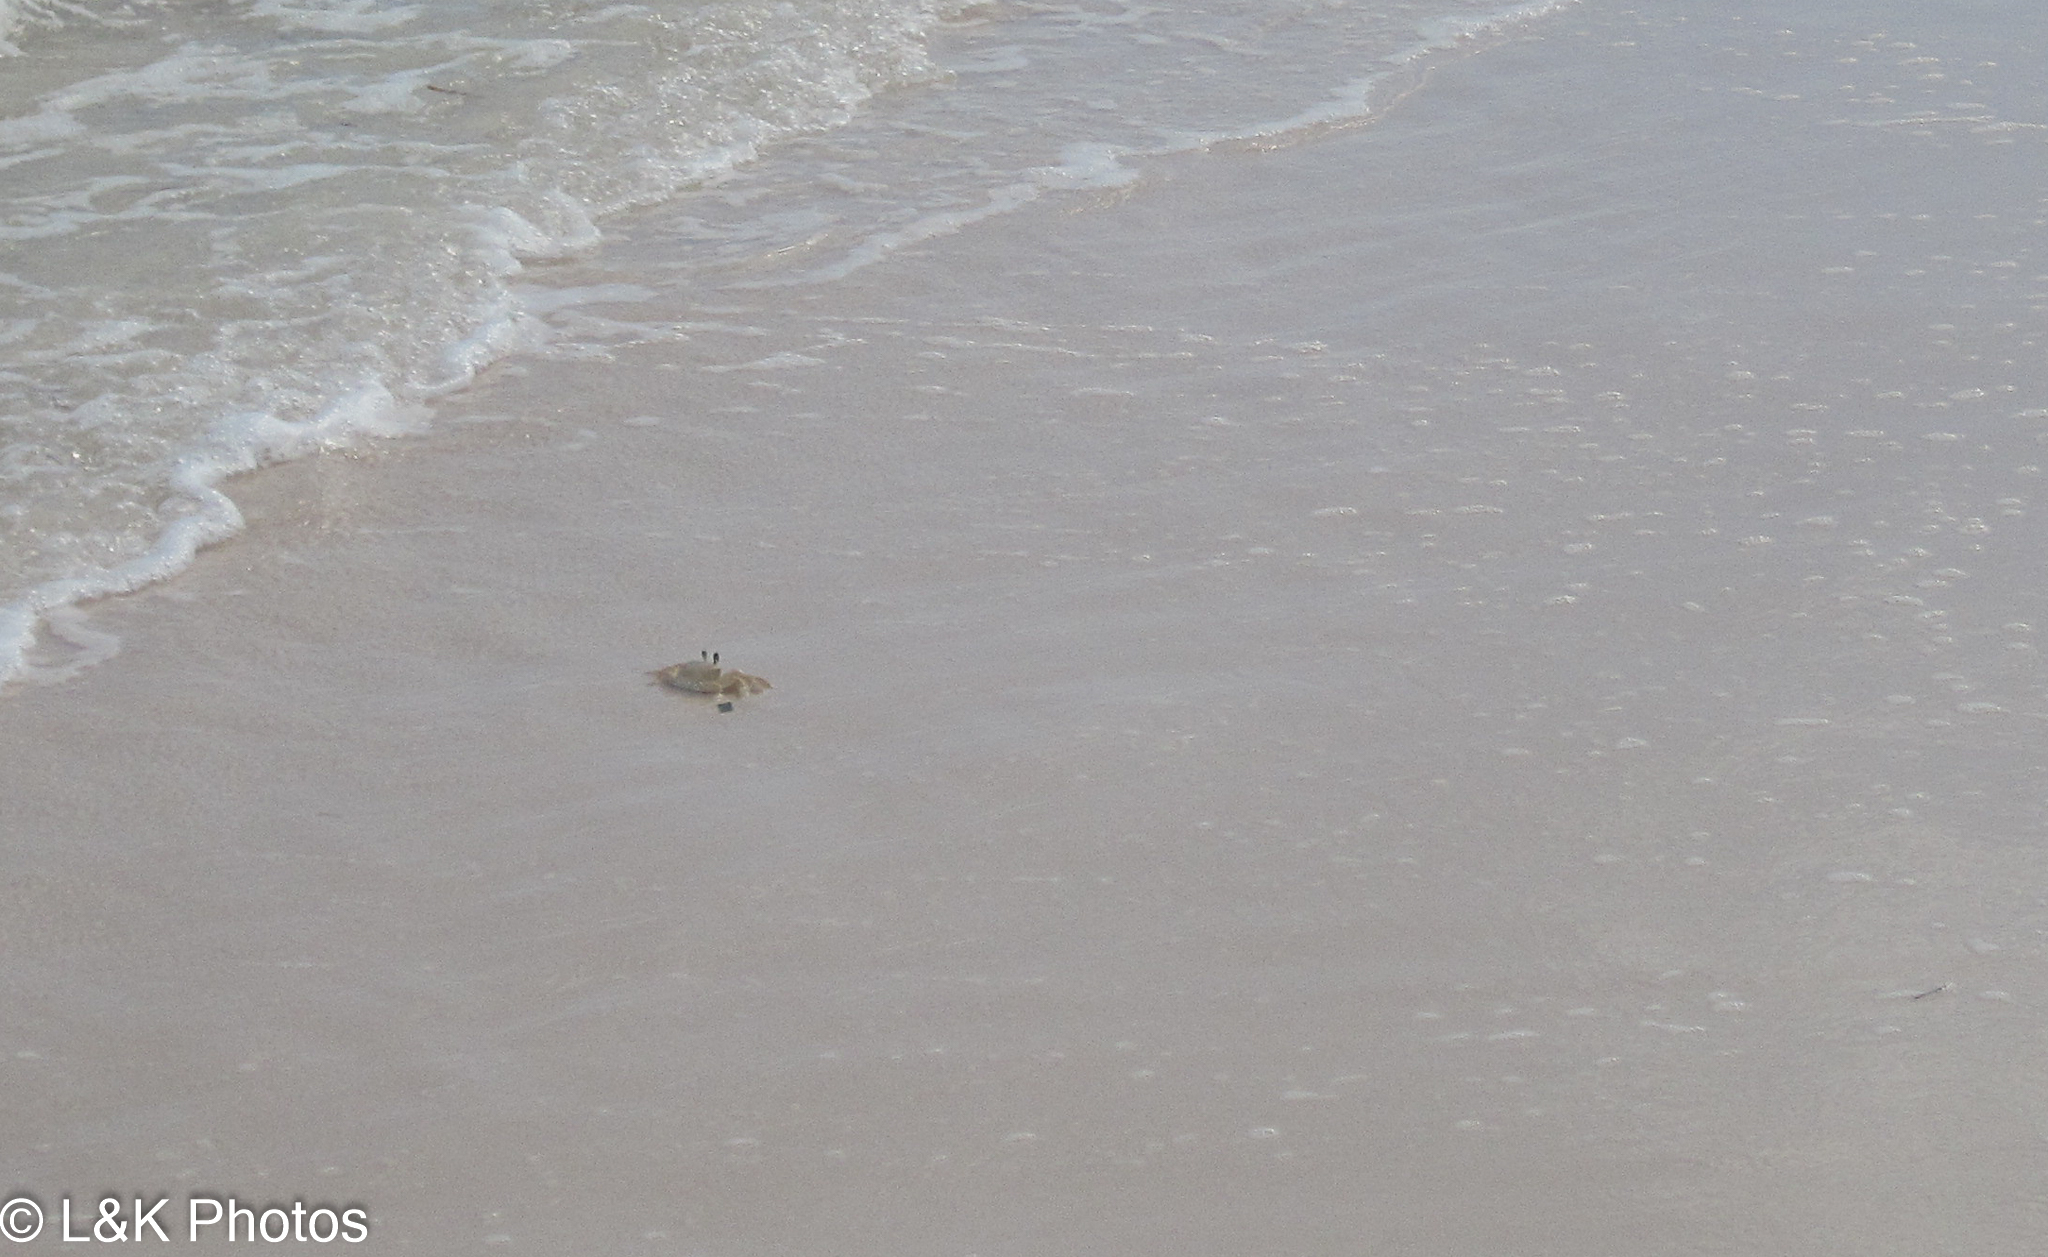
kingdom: Animalia
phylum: Arthropoda
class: Malacostraca
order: Decapoda
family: Ocypodidae
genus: Ocypode
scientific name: Ocypode quadrata
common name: Ghost crab
